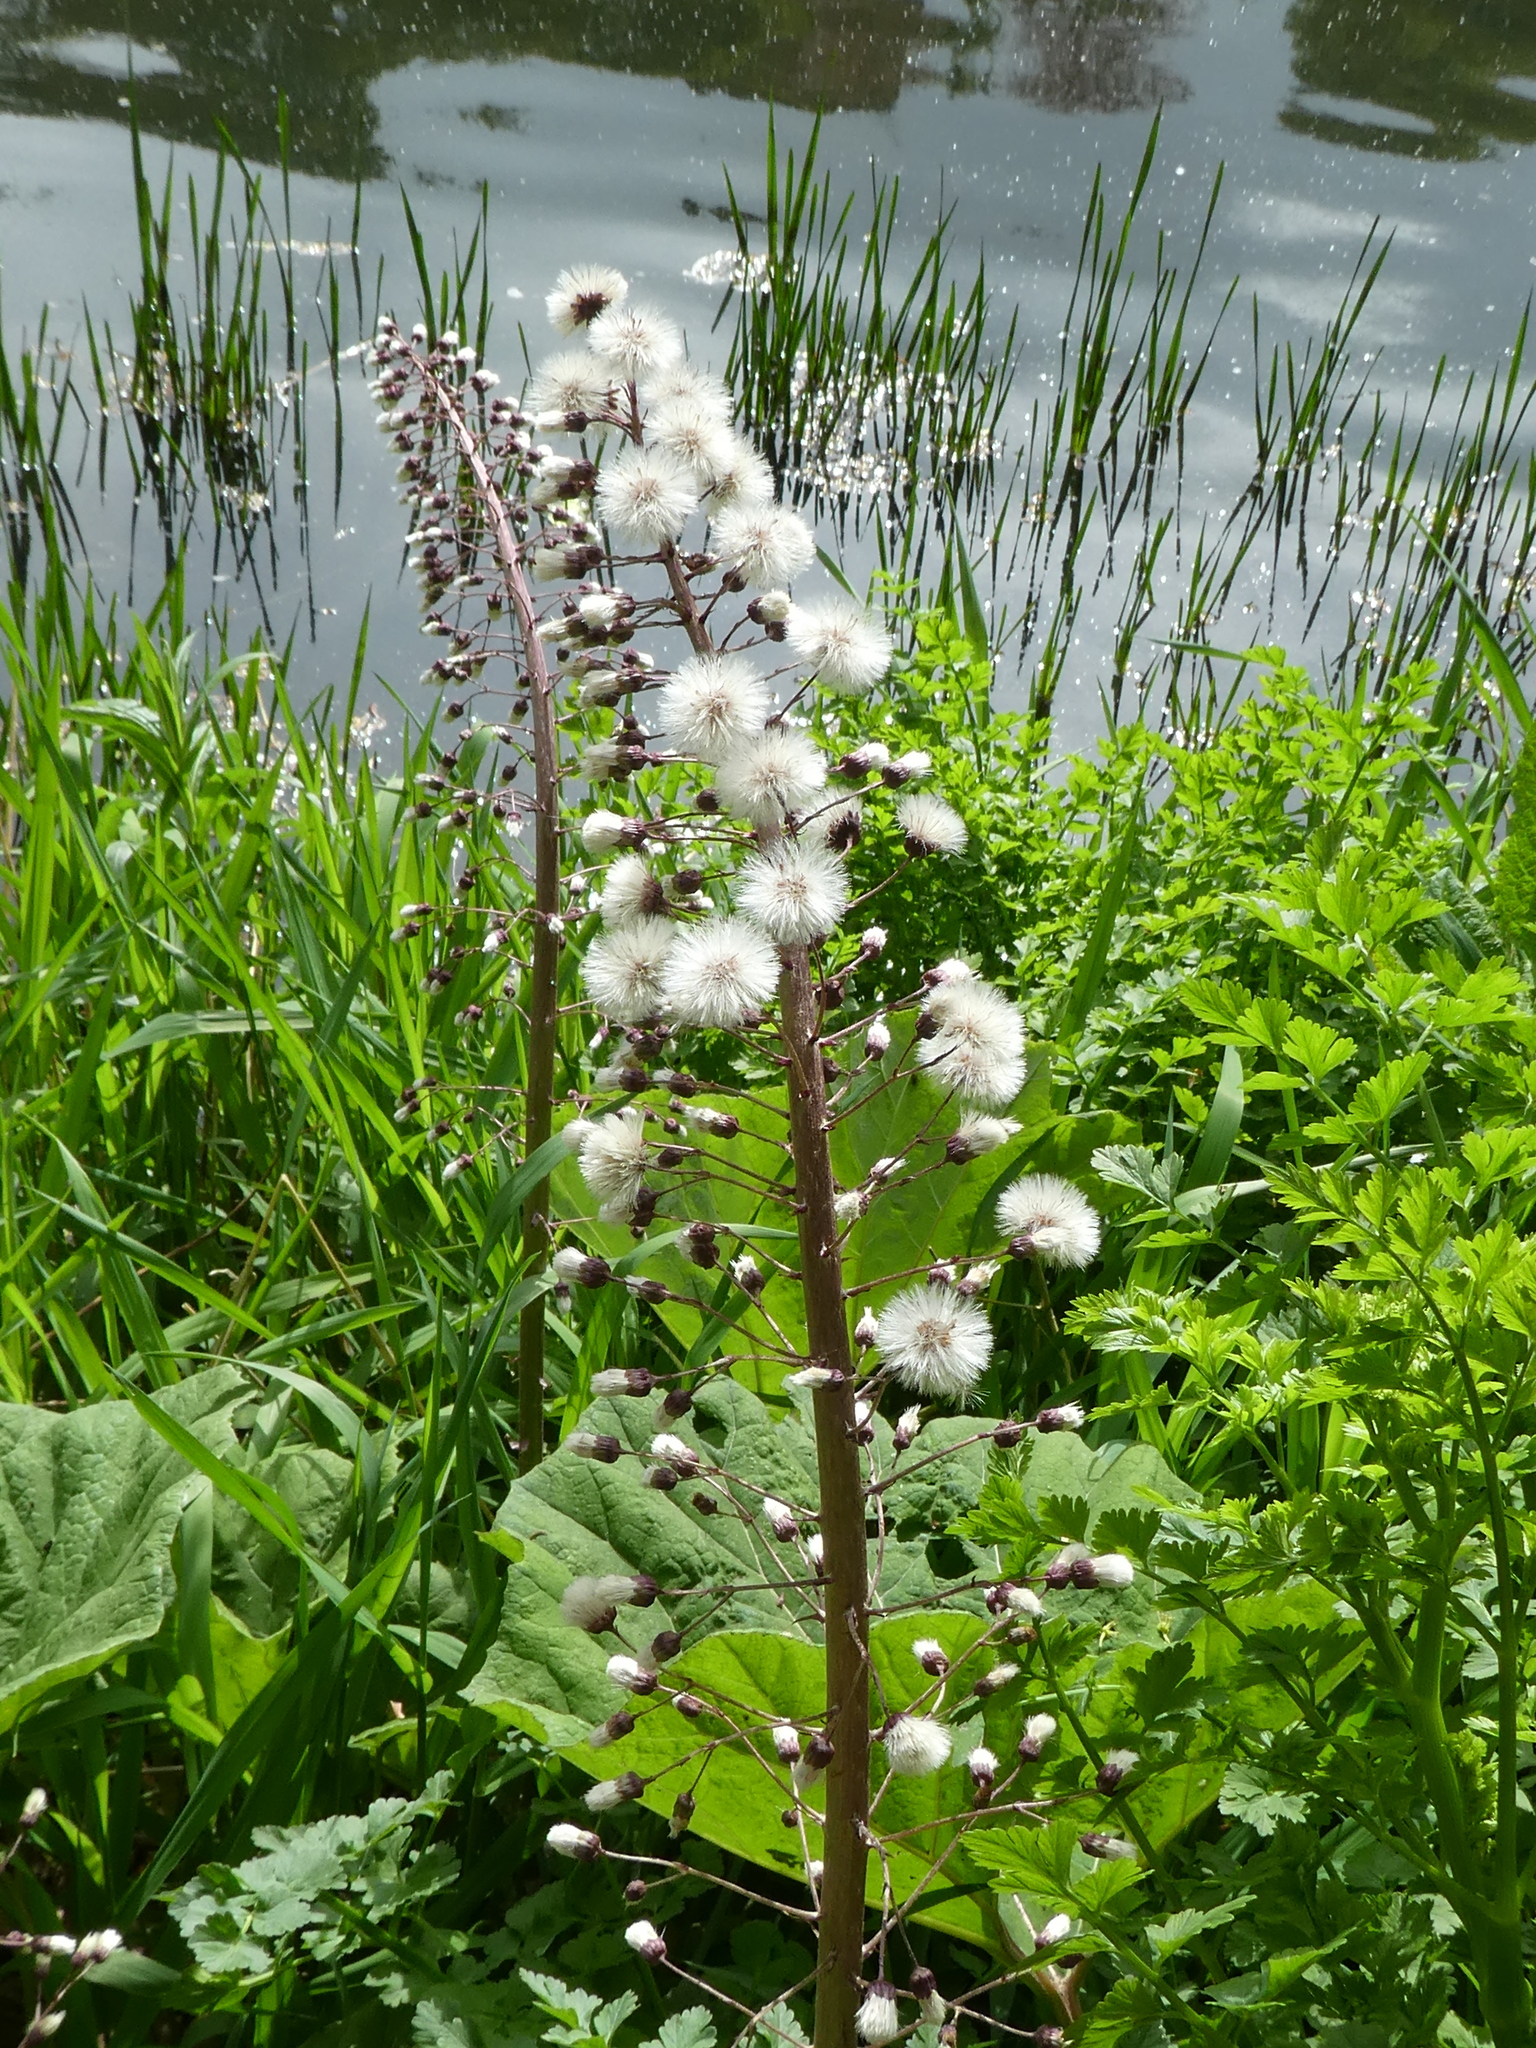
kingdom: Plantae
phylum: Tracheophyta
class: Magnoliopsida
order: Asterales
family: Asteraceae
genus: Petasites
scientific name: Petasites hybridus
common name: Butterbur
